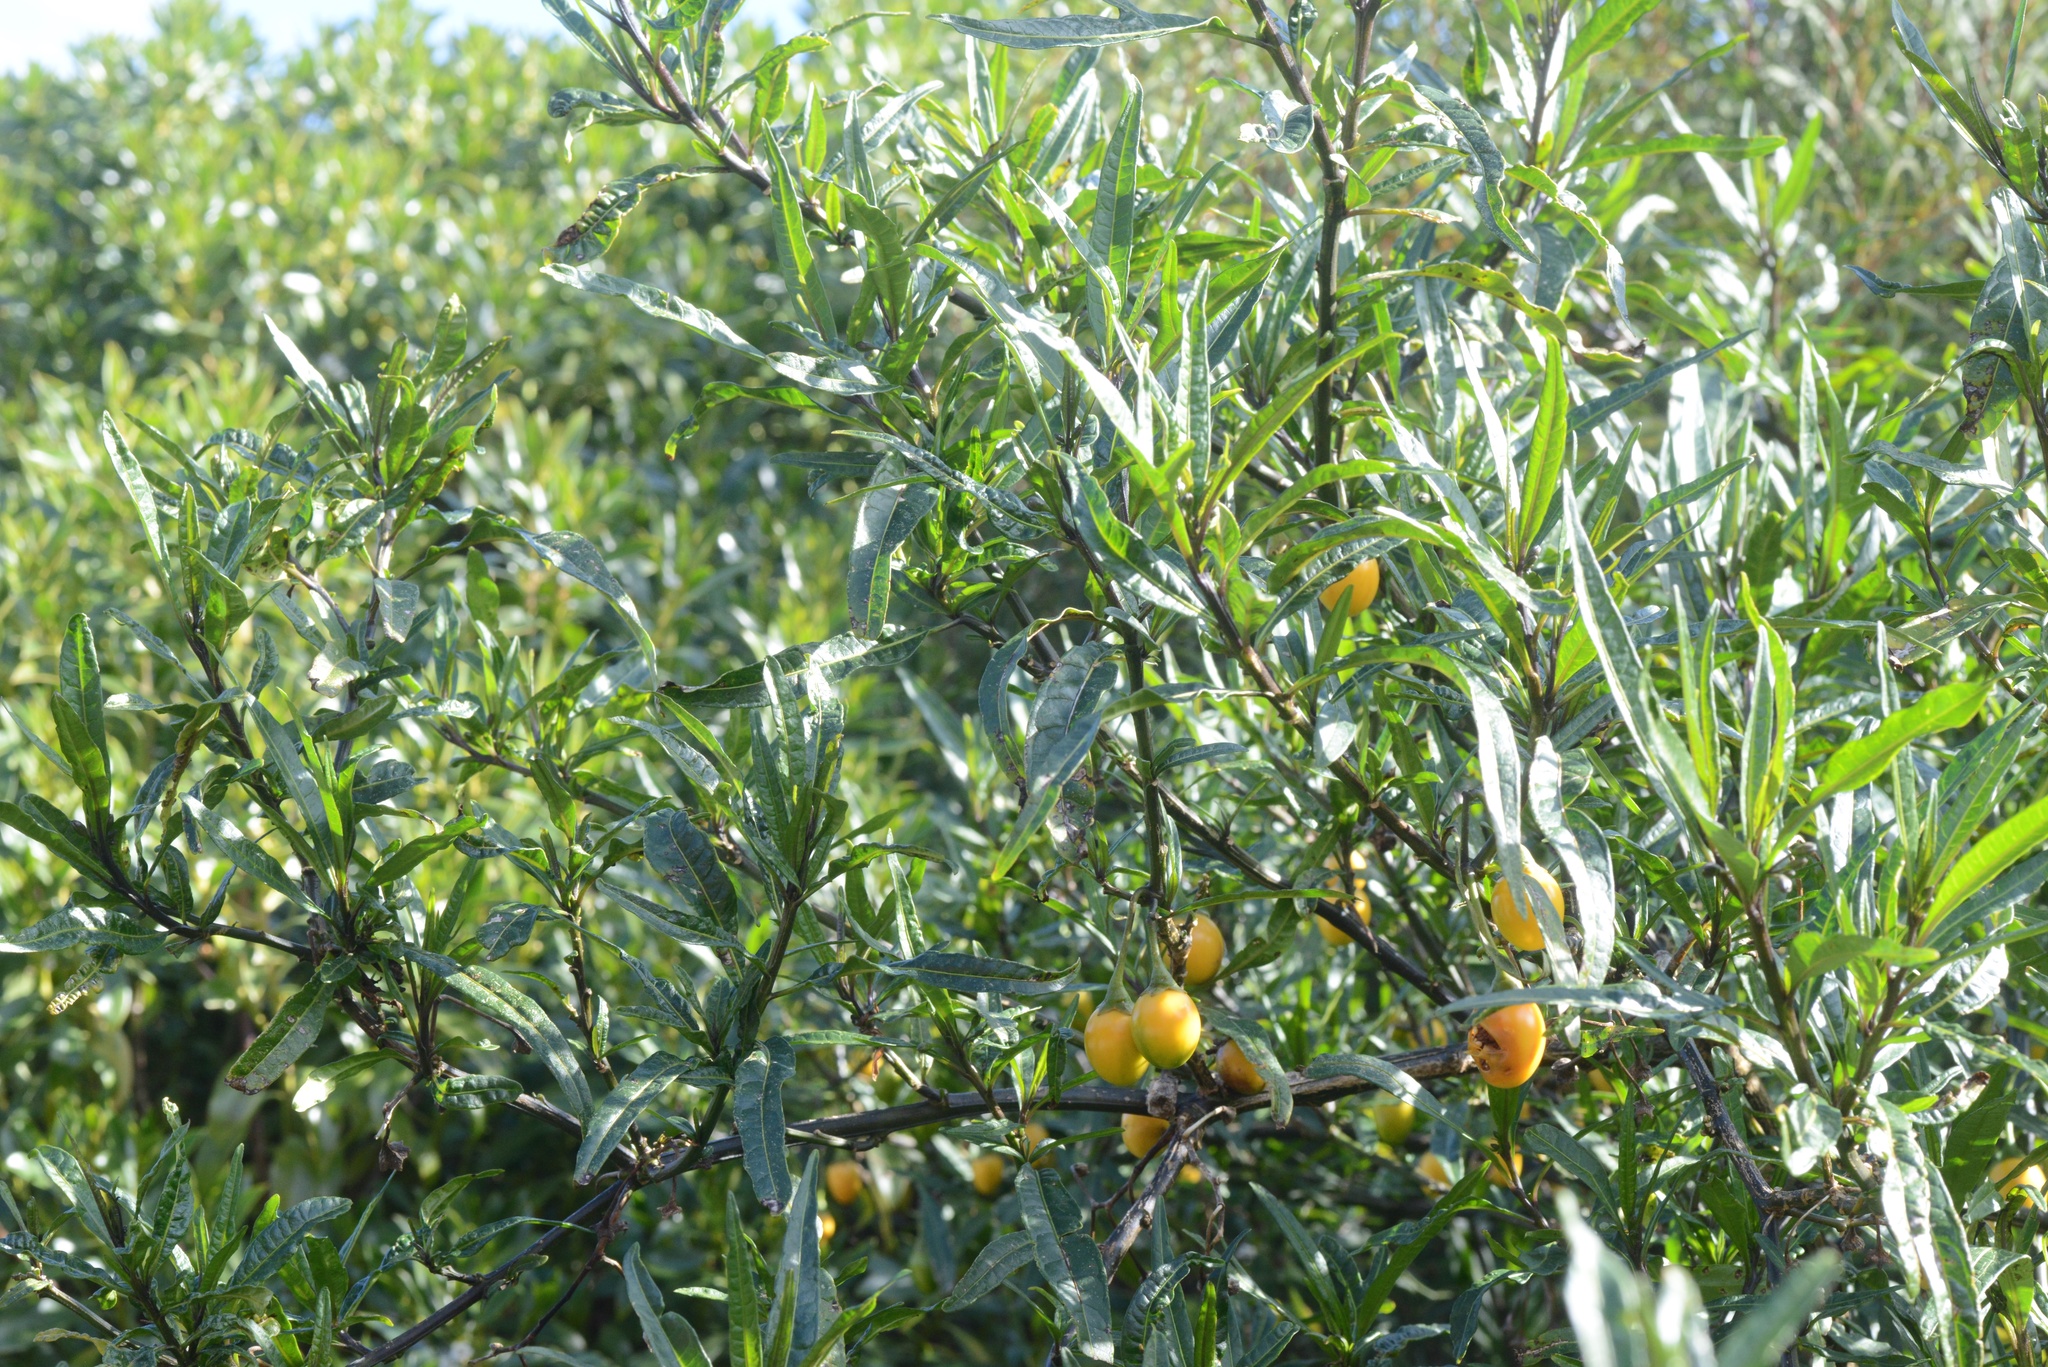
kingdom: Plantae
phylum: Tracheophyta
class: Magnoliopsida
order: Solanales
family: Solanaceae
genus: Solanum
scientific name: Solanum laciniatum
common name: Kangaroo-apple
